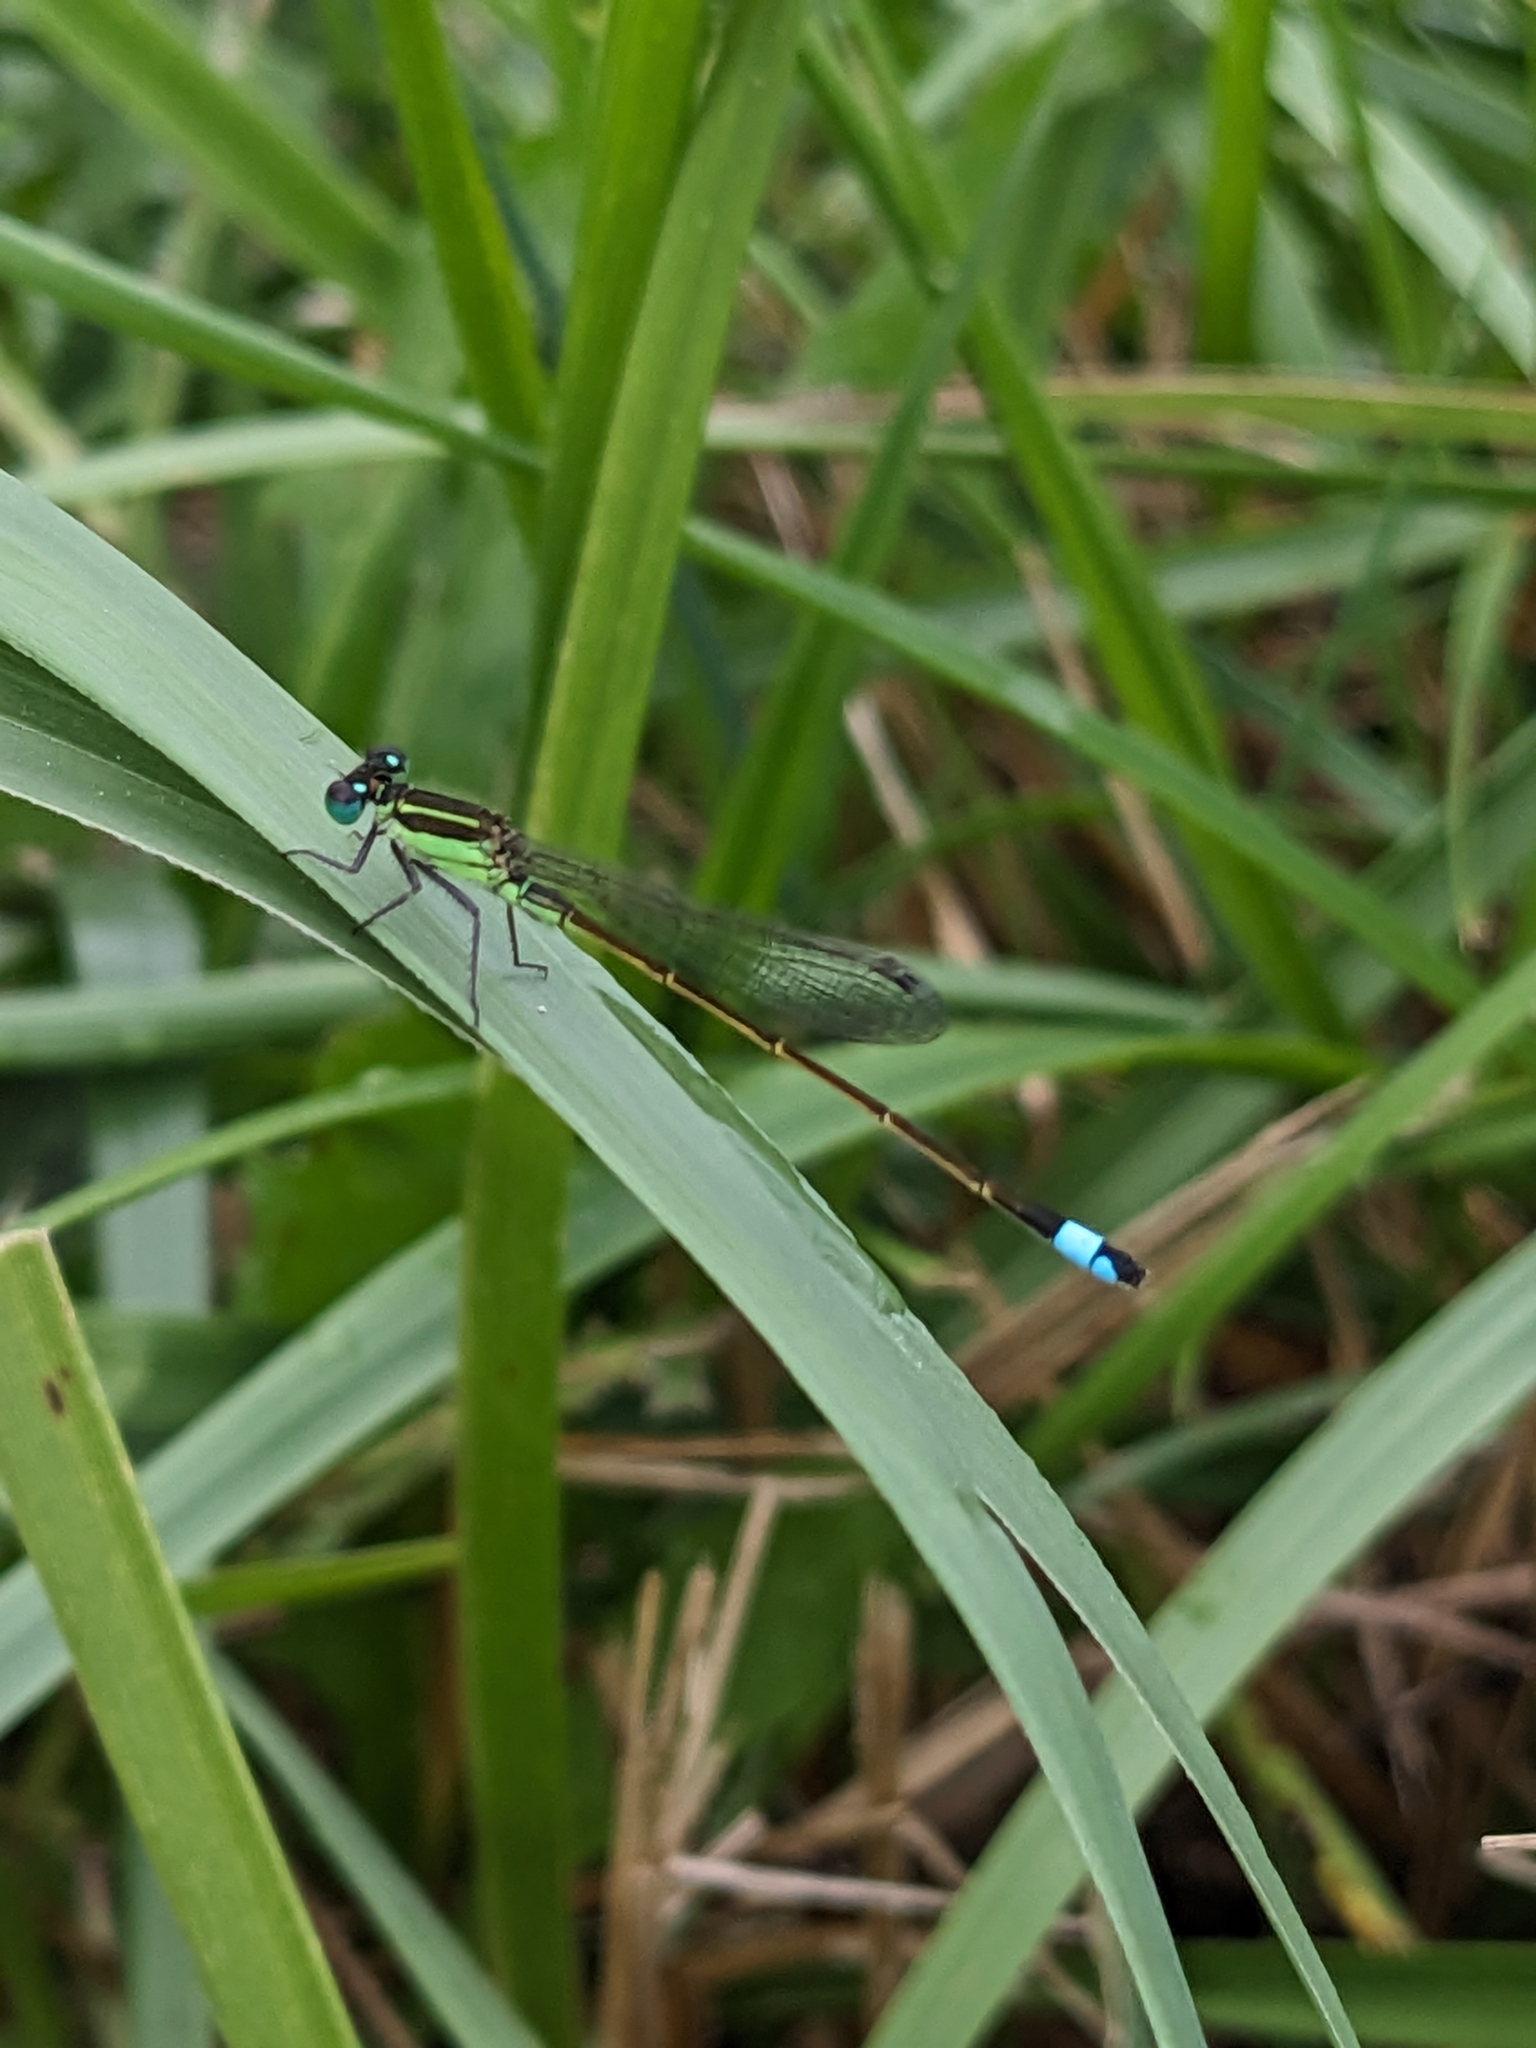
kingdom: Animalia
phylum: Arthropoda
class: Insecta
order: Odonata
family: Coenagrionidae
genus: Ischnura
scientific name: Ischnura ramburii
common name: Rambur's forktail
